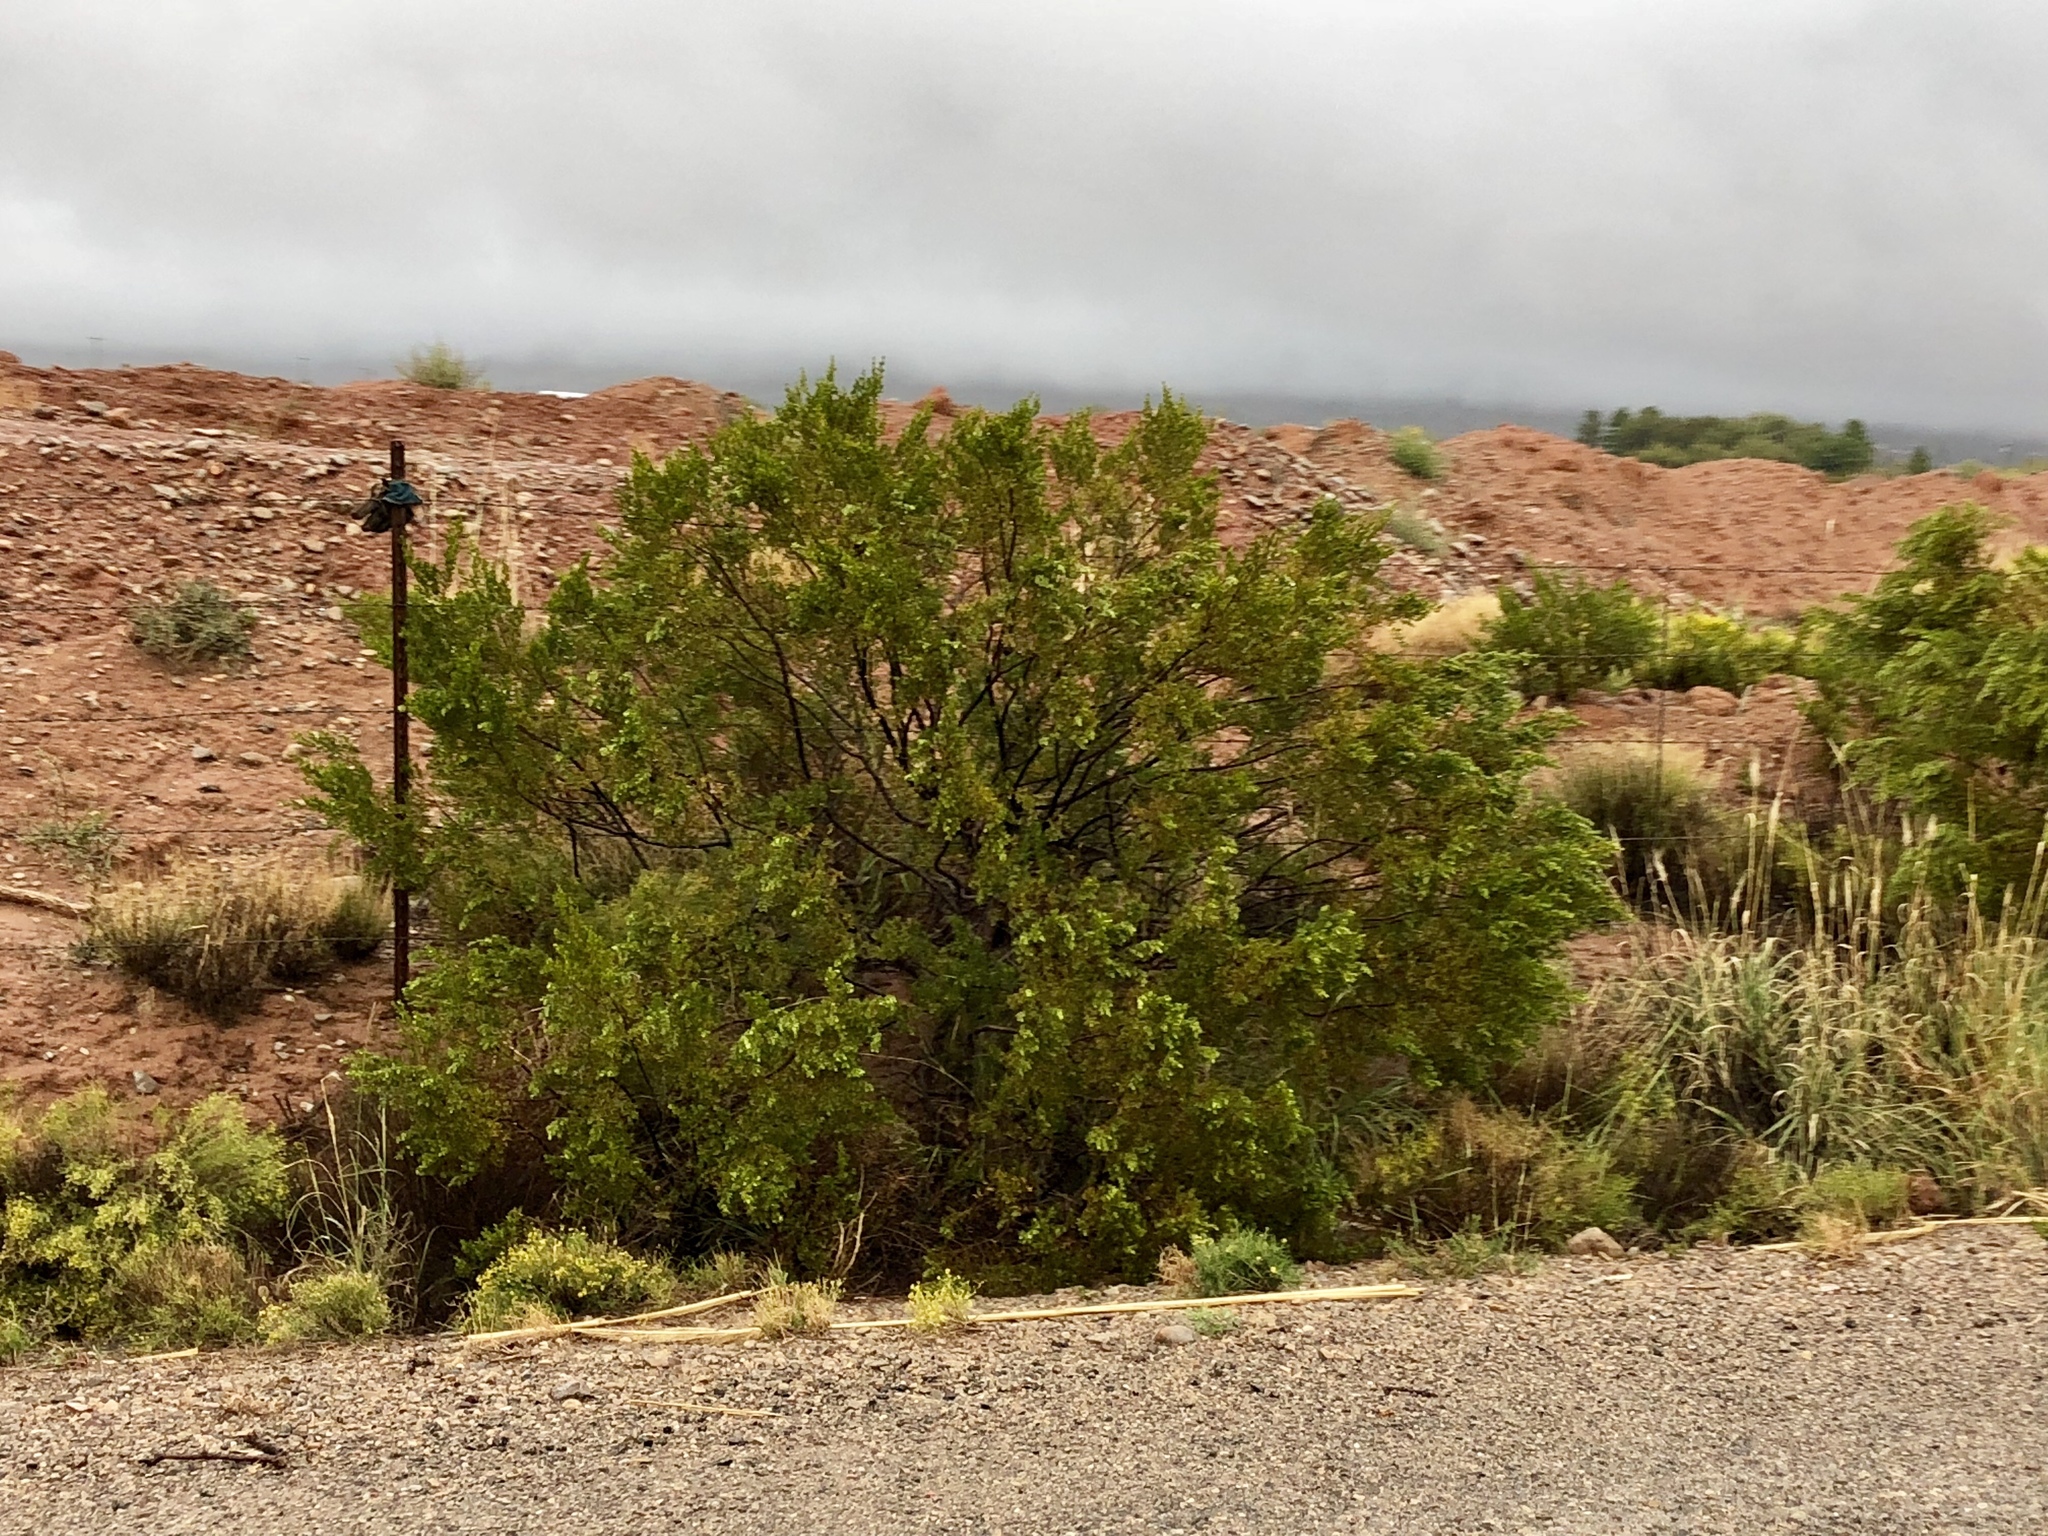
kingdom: Plantae
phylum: Tracheophyta
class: Magnoliopsida
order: Zygophyllales
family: Zygophyllaceae
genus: Larrea
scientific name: Larrea tridentata
